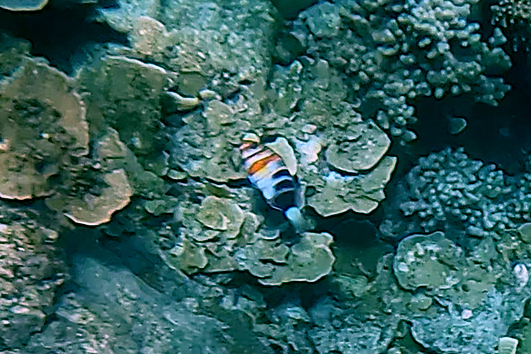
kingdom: Animalia
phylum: Chordata
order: Perciformes
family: Labridae
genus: Choerodon
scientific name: Choerodon fasciatus
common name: Harlequin tuskfish
